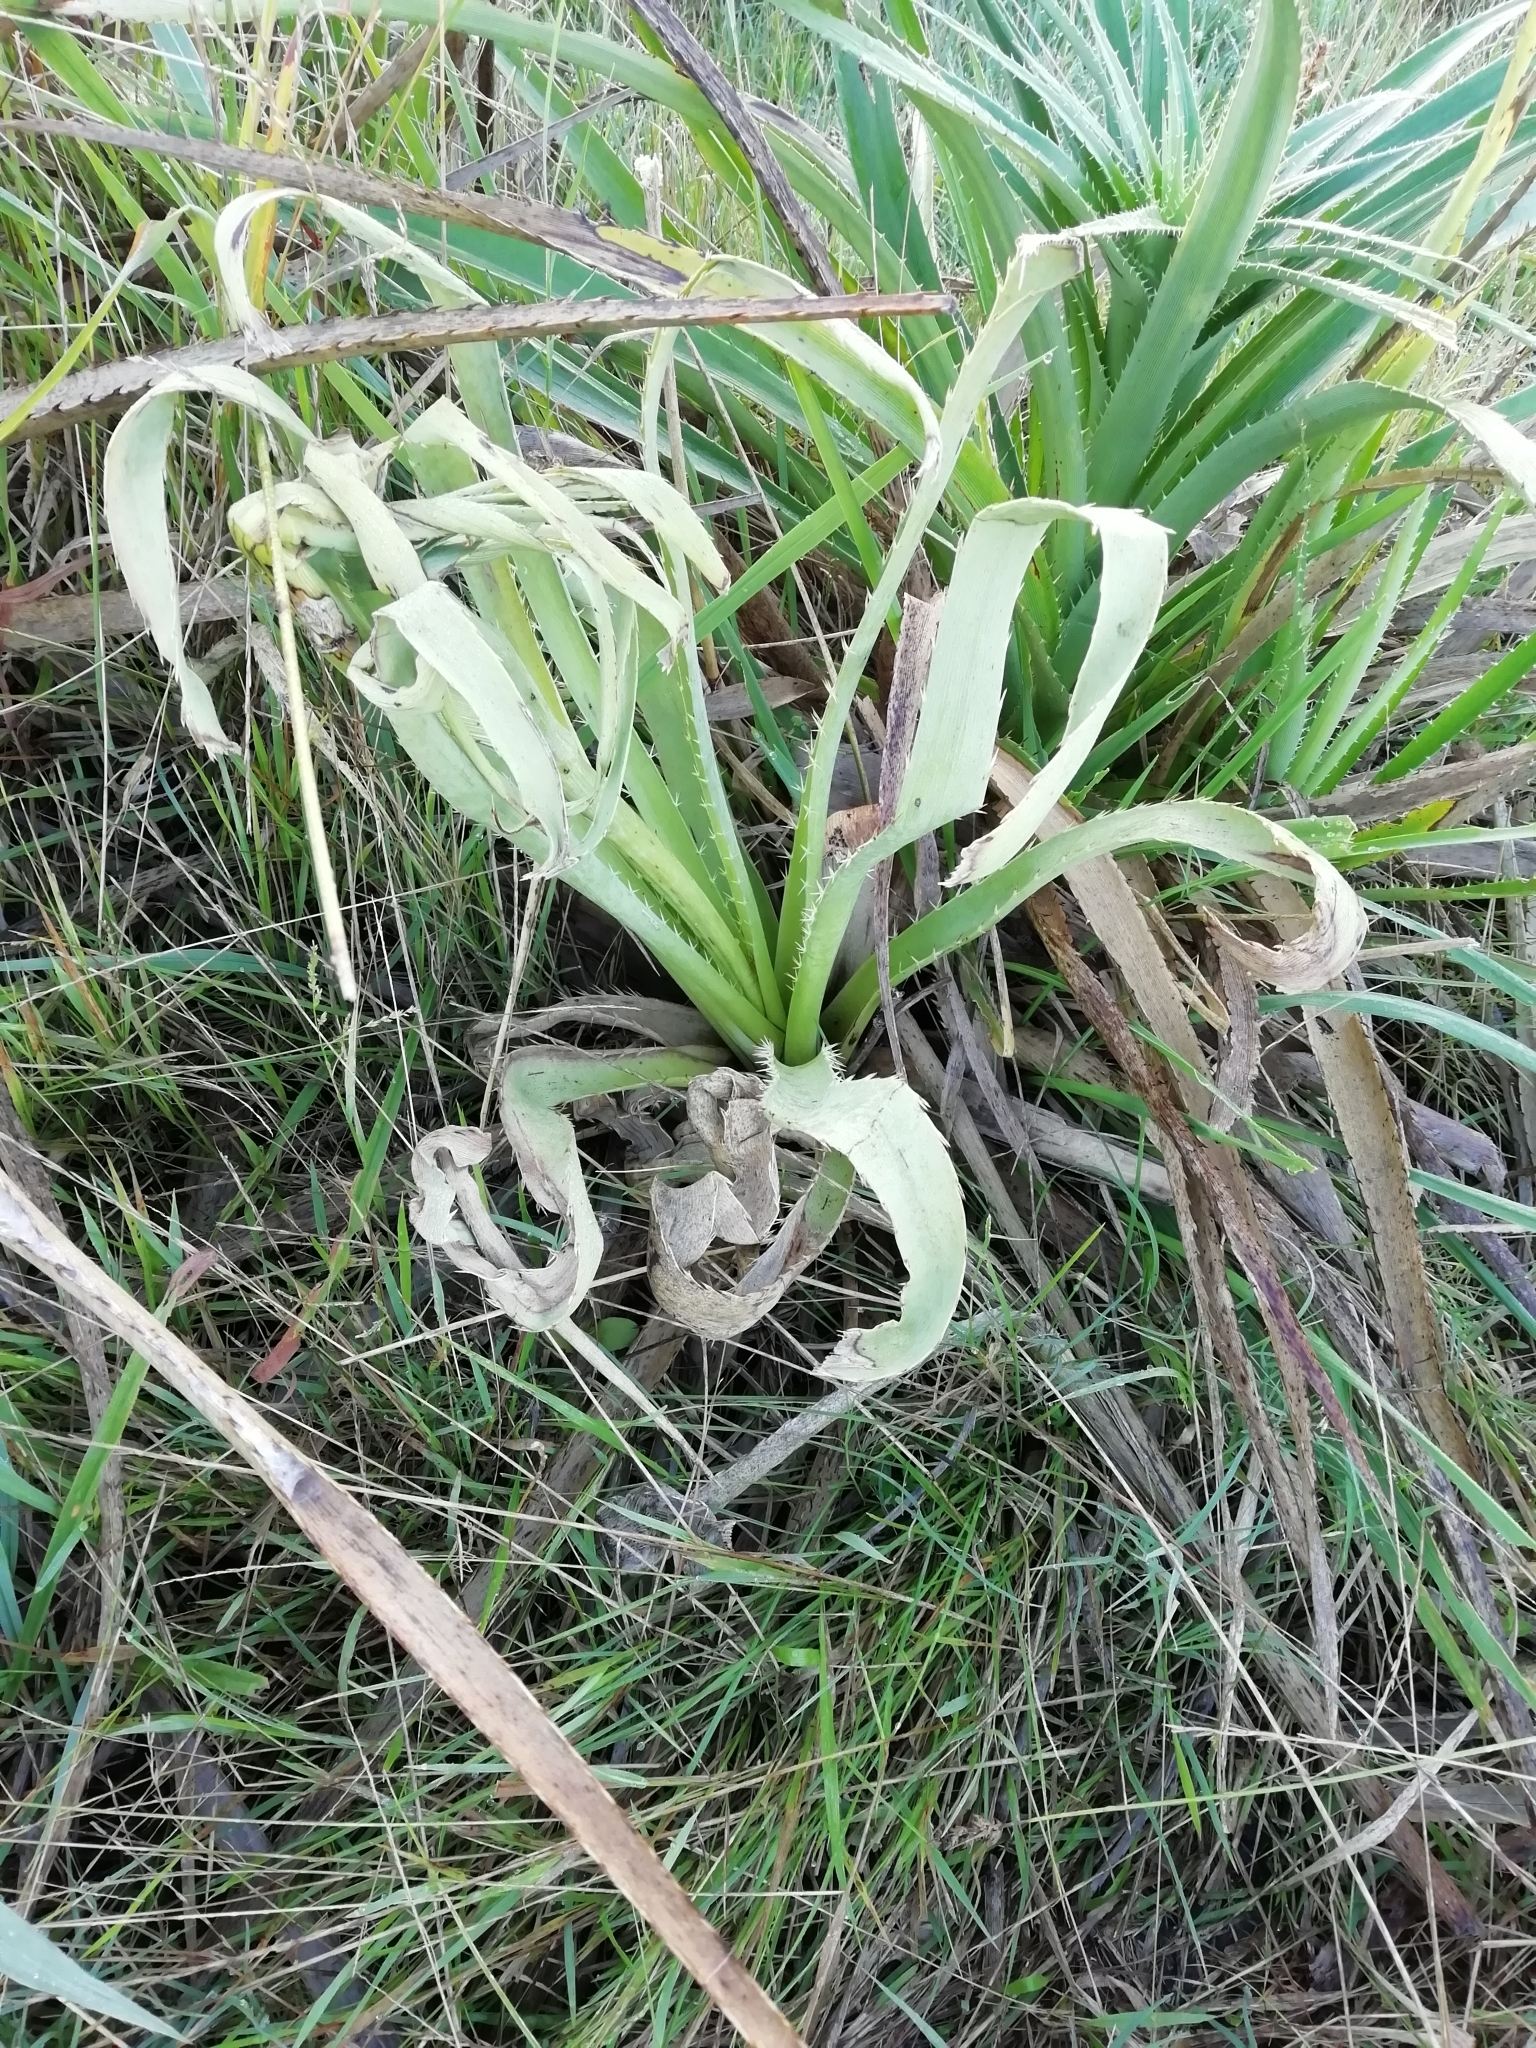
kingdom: Plantae
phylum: Tracheophyta
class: Magnoliopsida
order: Apiales
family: Apiaceae
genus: Eryngium
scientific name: Eryngium eburneum
